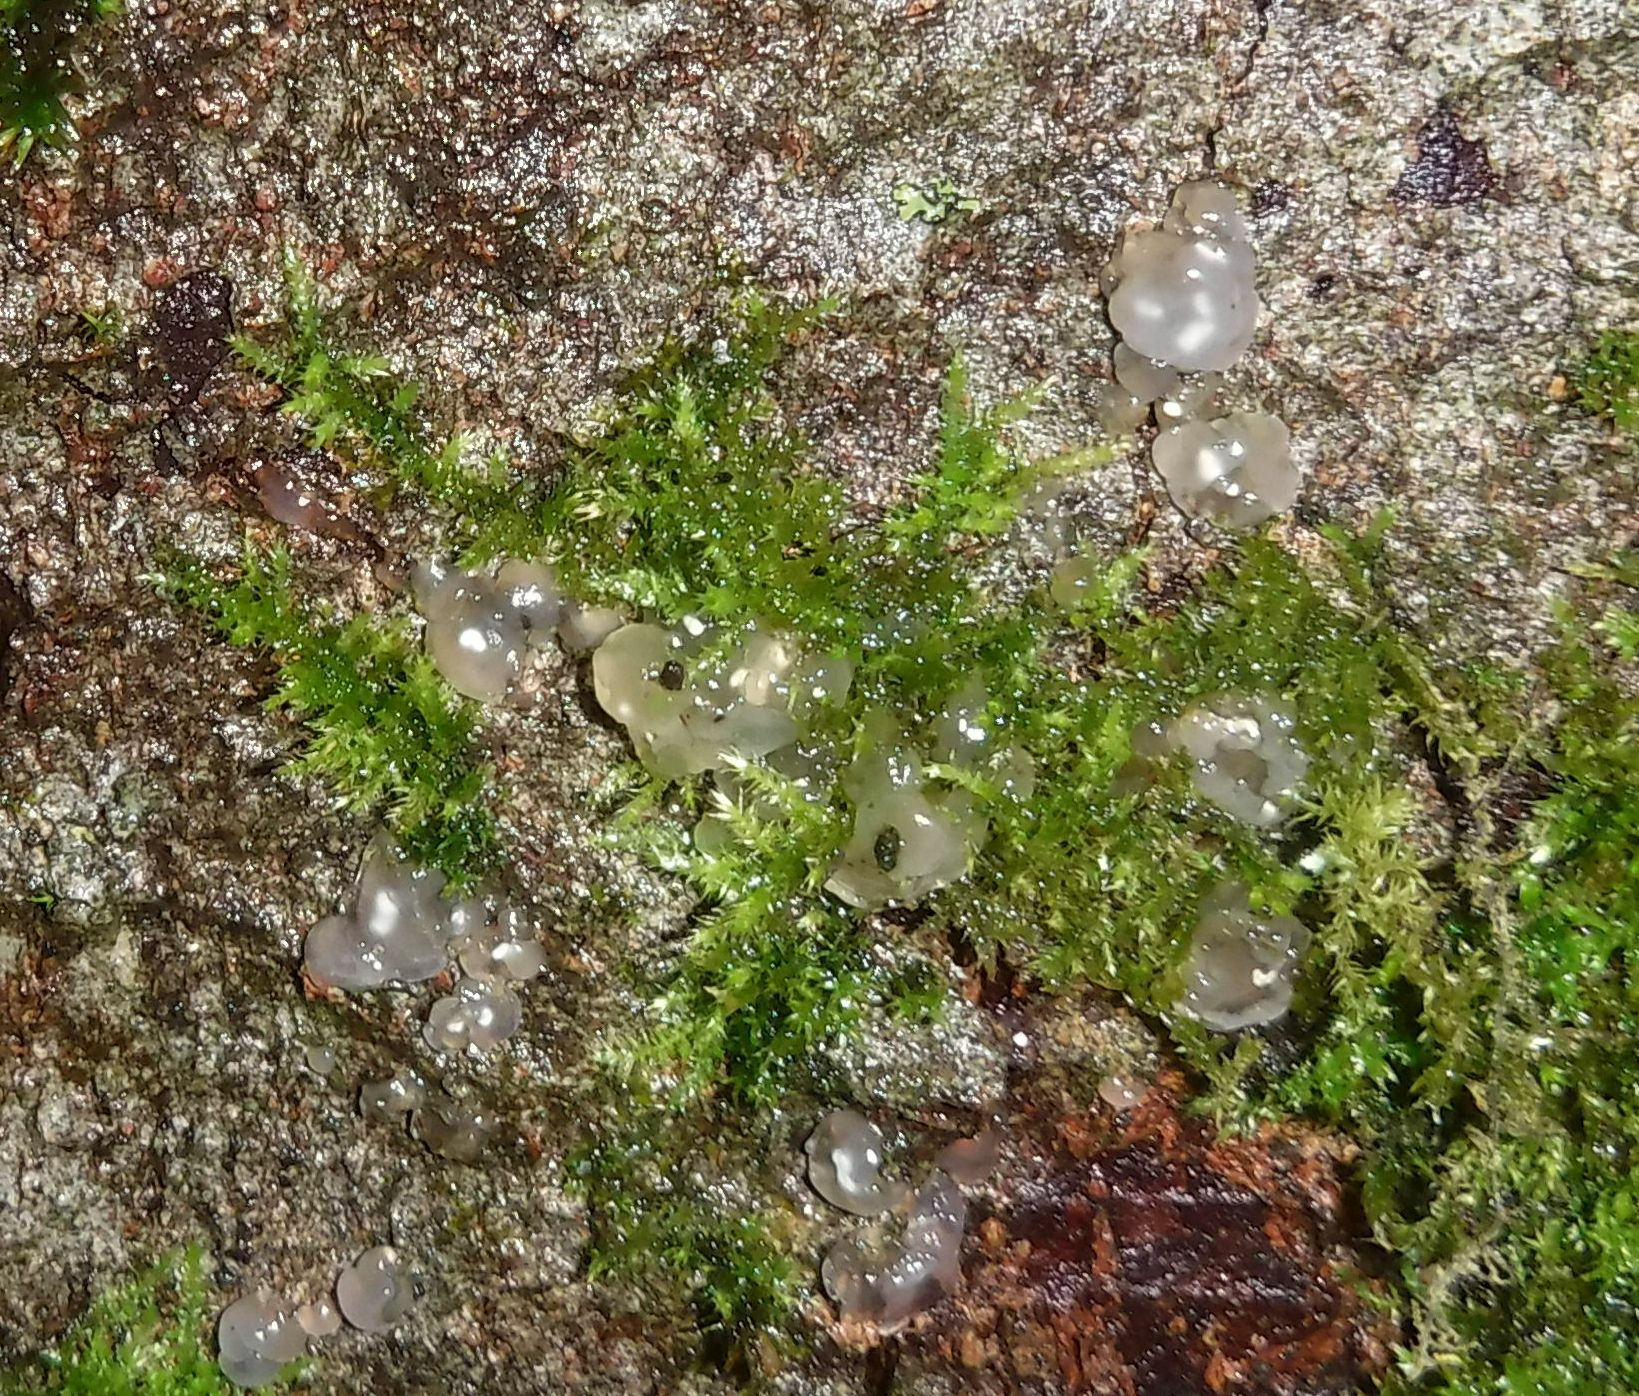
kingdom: Fungi
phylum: Basidiomycota
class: Agaricomycetes
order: Auriculariales
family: Hyaloriaceae
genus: Myxarium
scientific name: Myxarium nucleatum
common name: Crystal brain fungus
